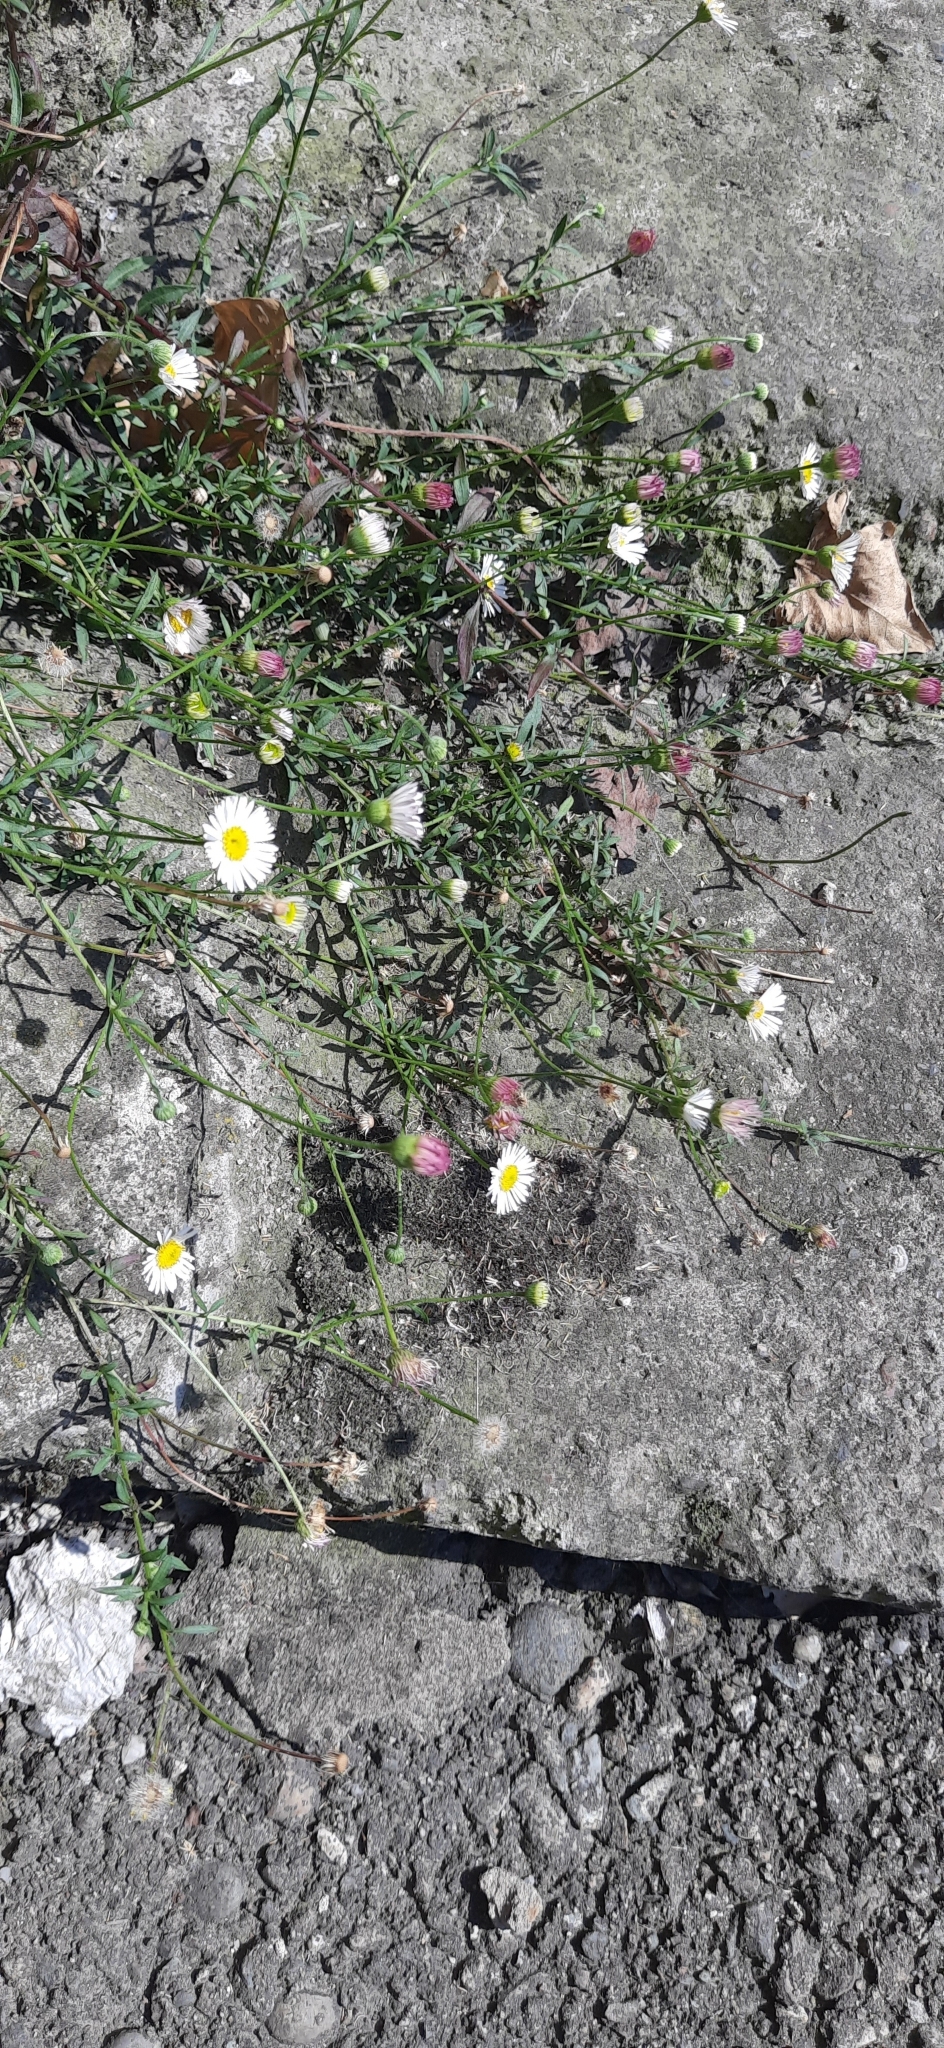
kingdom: Plantae
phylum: Tracheophyta
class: Magnoliopsida
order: Asterales
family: Asteraceae
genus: Erigeron
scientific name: Erigeron karvinskianus
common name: Mexican fleabane
